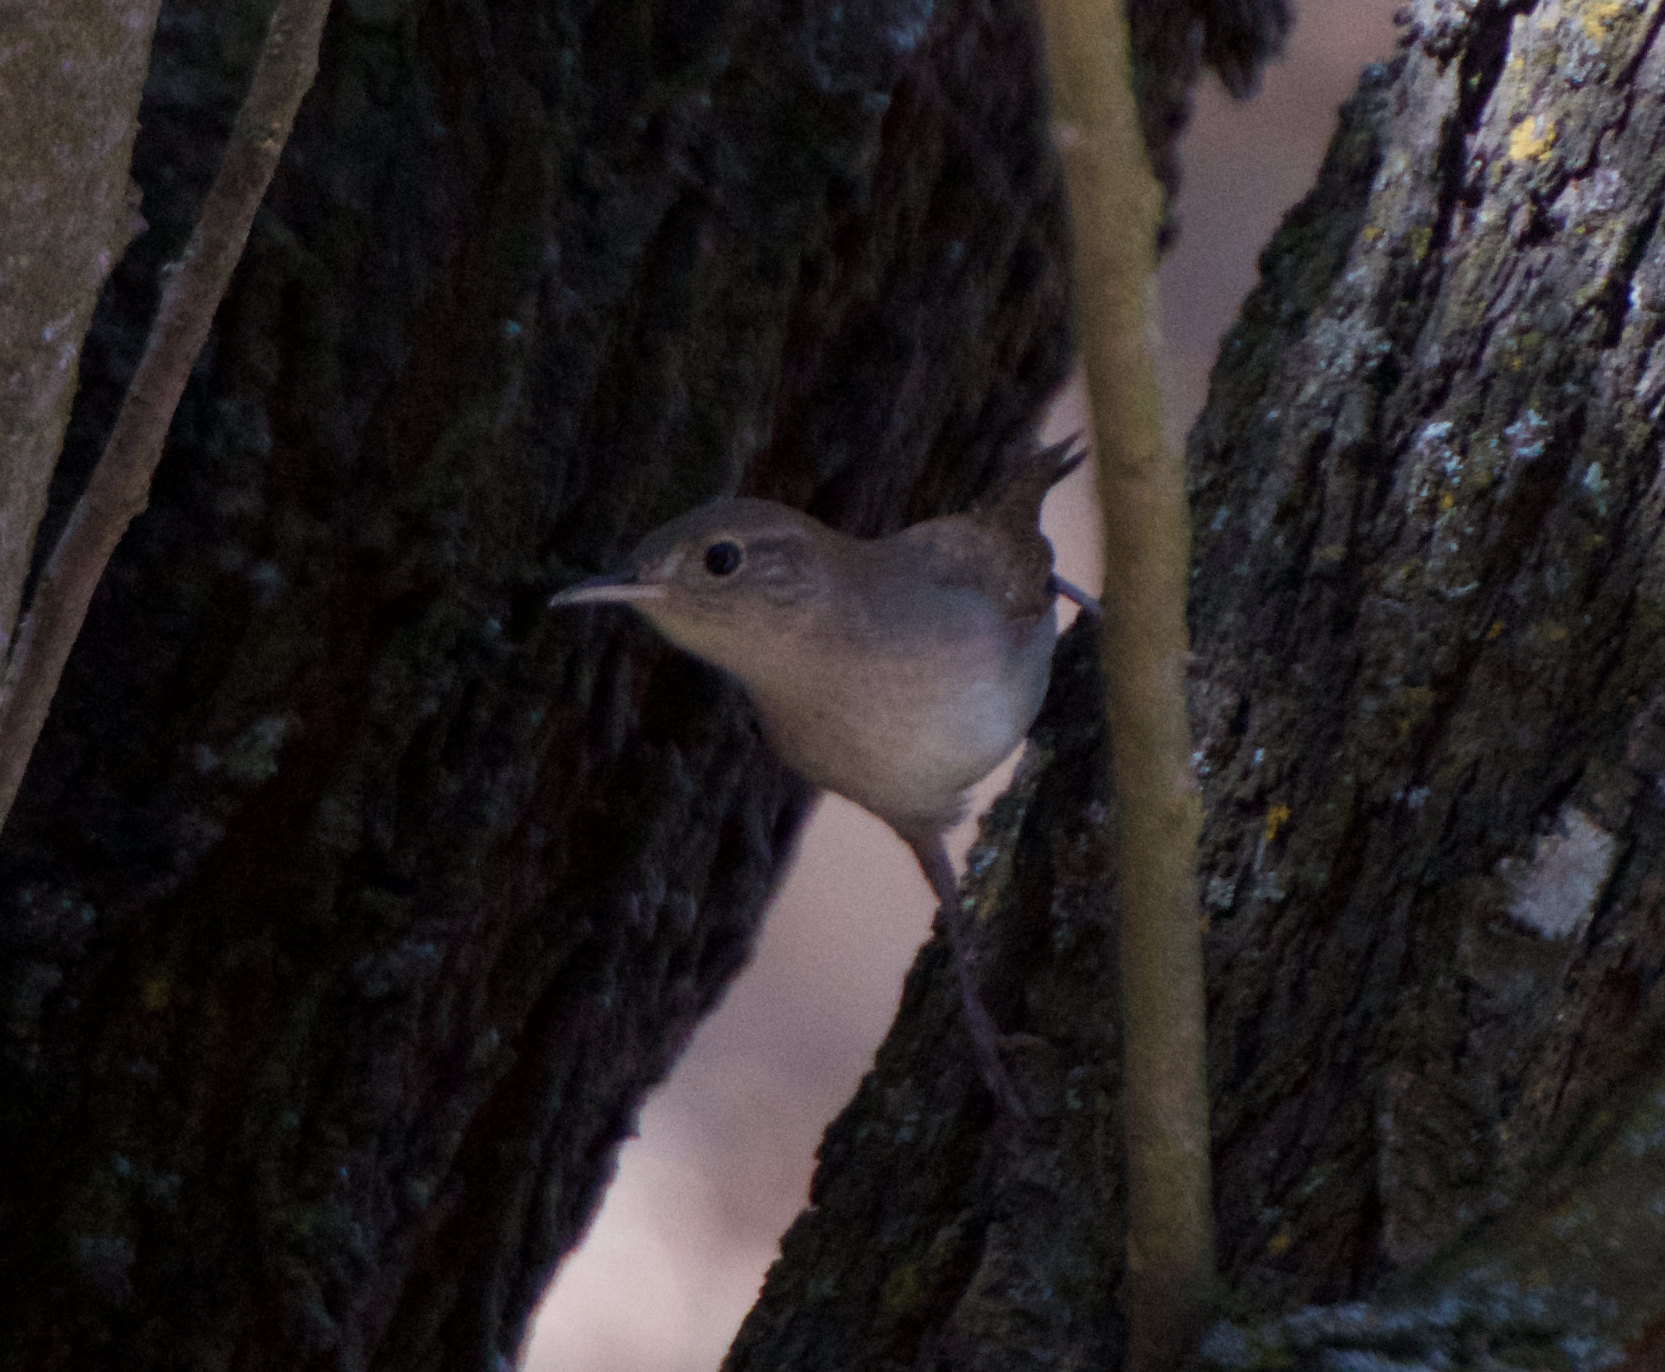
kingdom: Animalia
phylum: Chordata
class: Aves
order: Passeriformes
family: Troglodytidae
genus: Troglodytes
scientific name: Troglodytes aedon
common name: House wren
